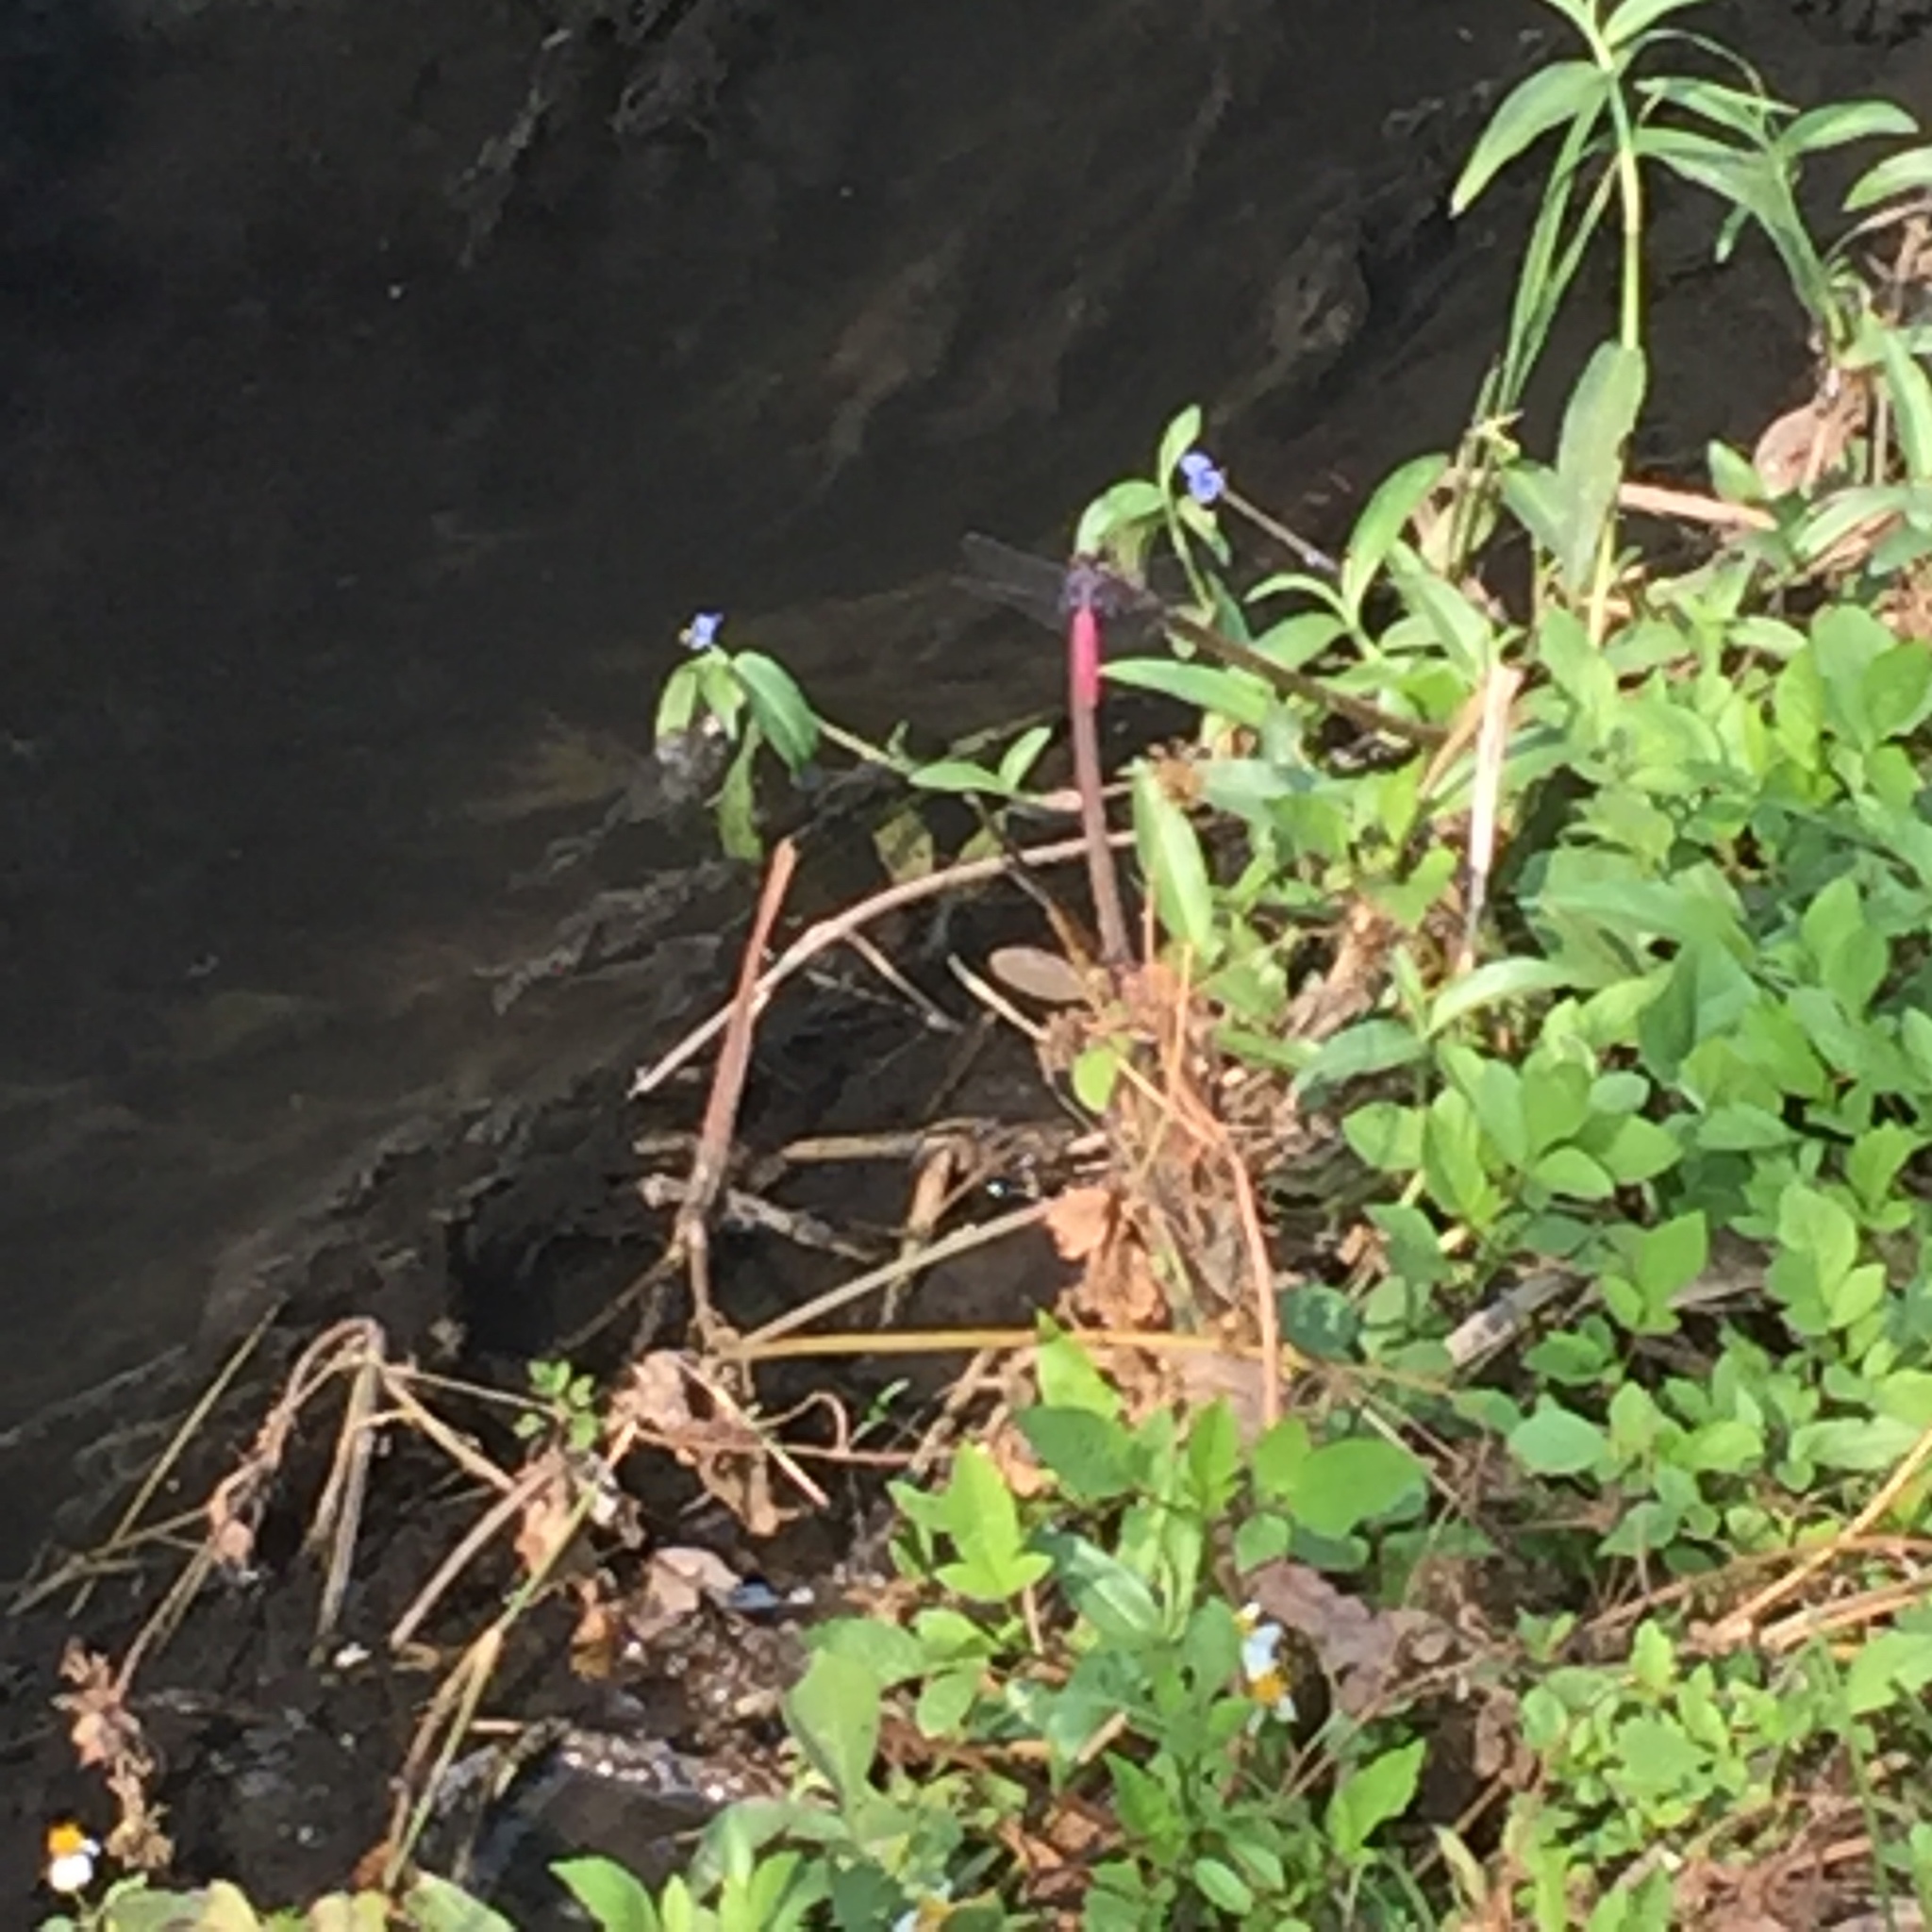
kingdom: Animalia
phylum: Arthropoda
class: Insecta
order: Odonata
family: Libellulidae
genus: Orthetrum
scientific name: Orthetrum pruinosum
